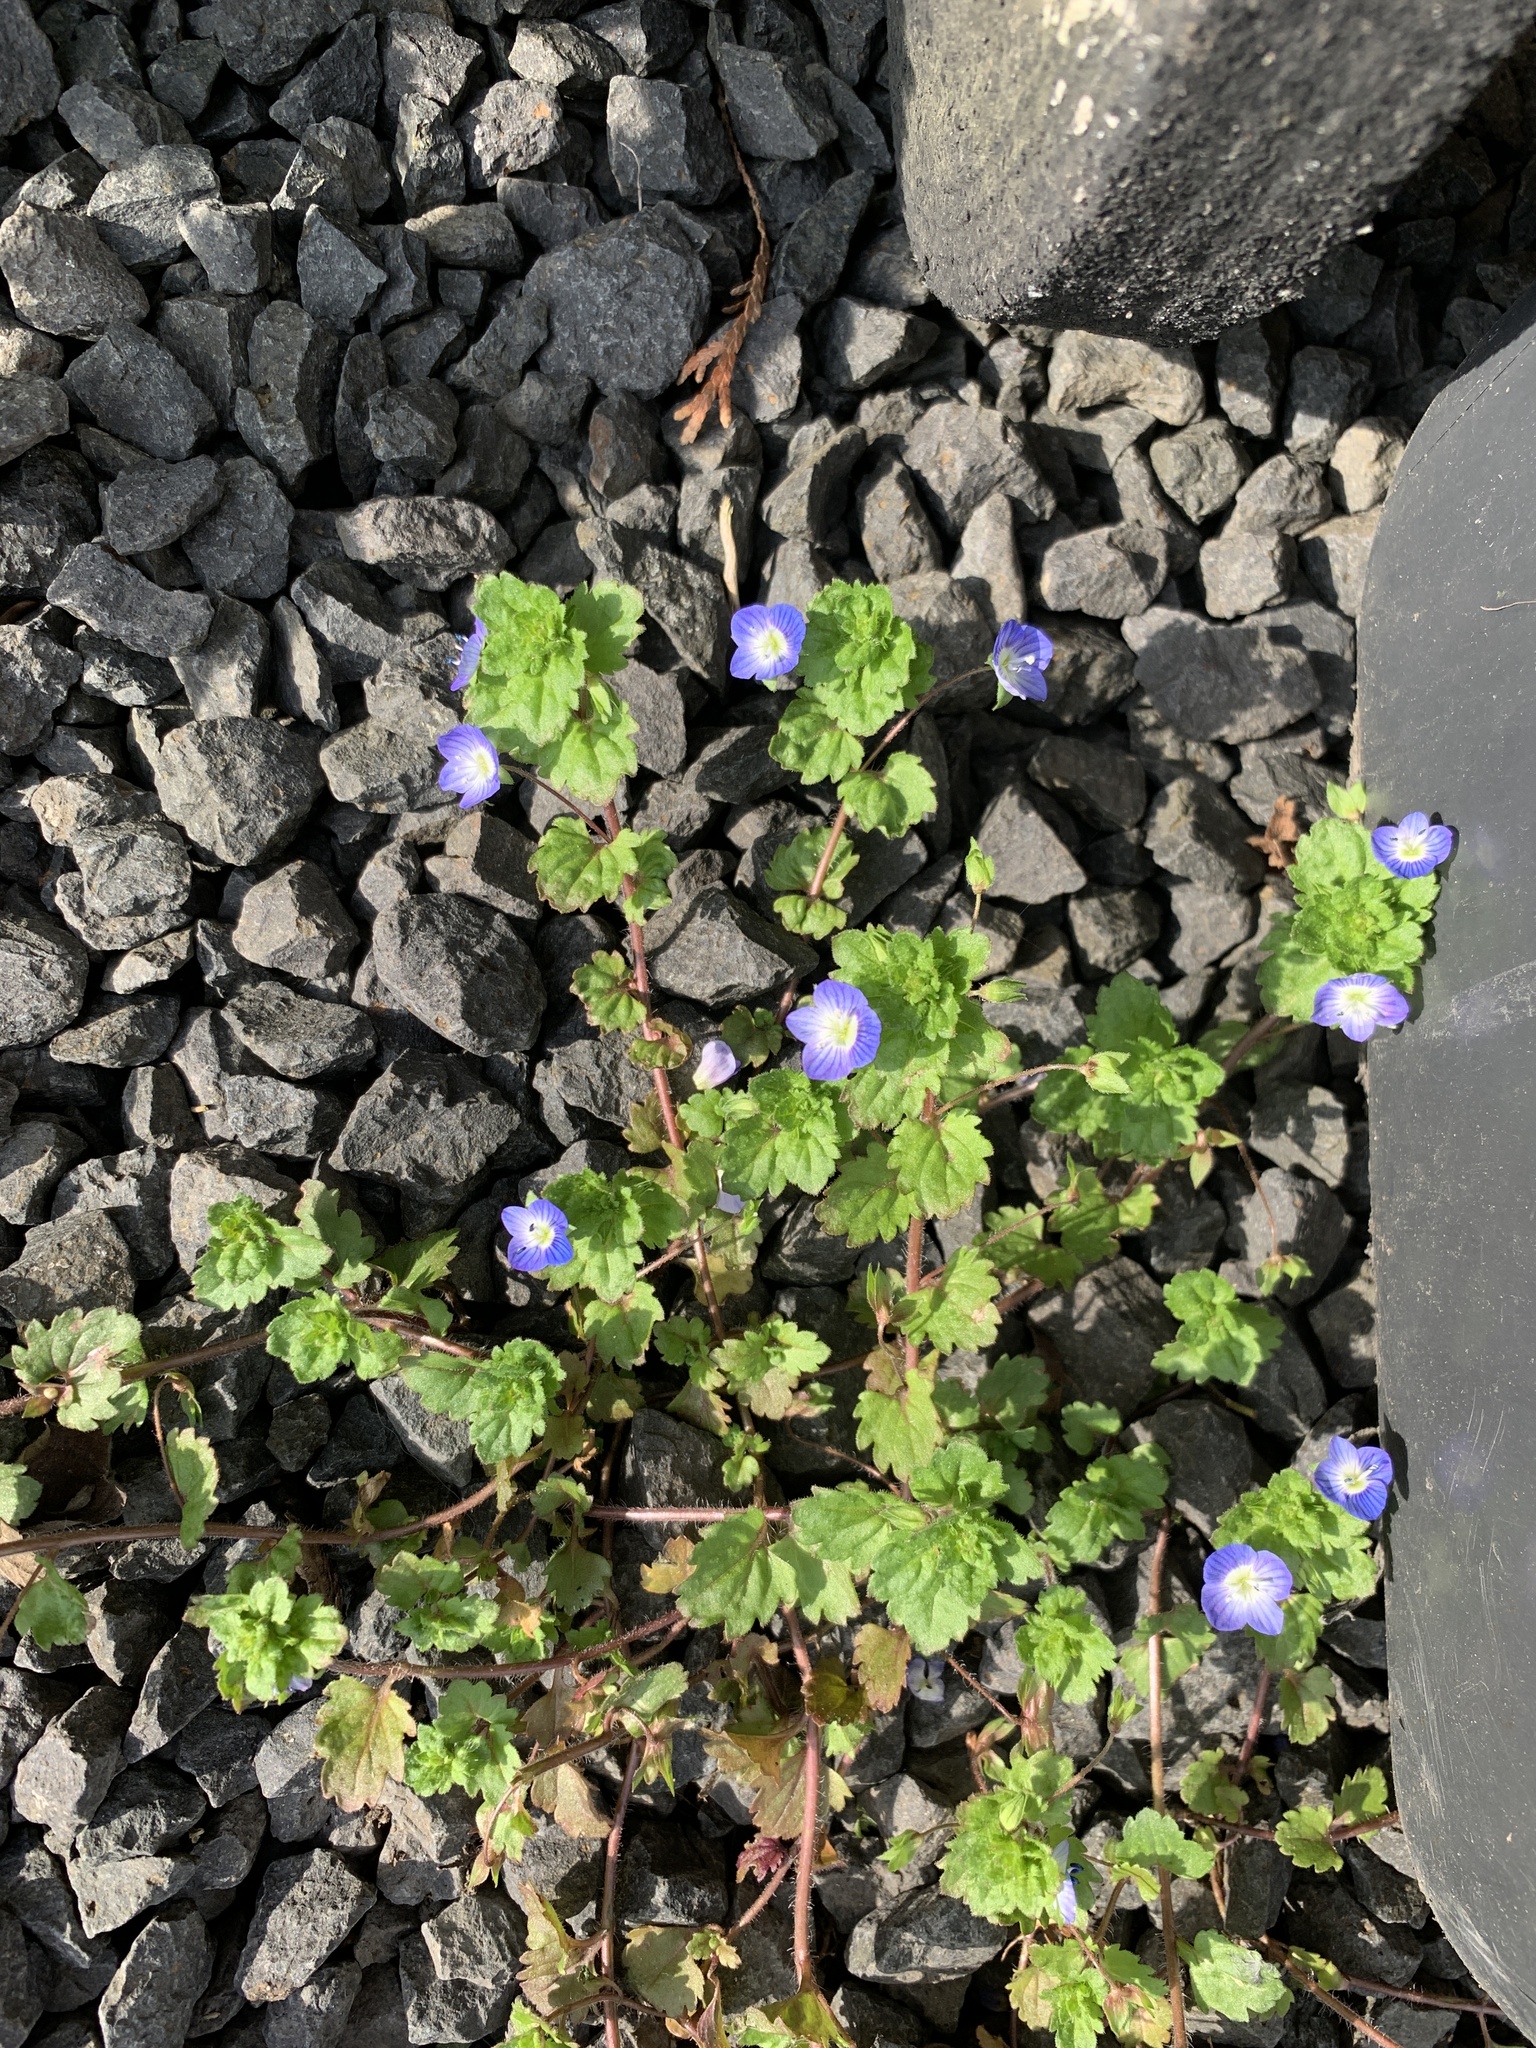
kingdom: Plantae
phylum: Tracheophyta
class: Magnoliopsida
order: Lamiales
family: Plantaginaceae
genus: Veronica
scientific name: Veronica persica
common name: Common field-speedwell
